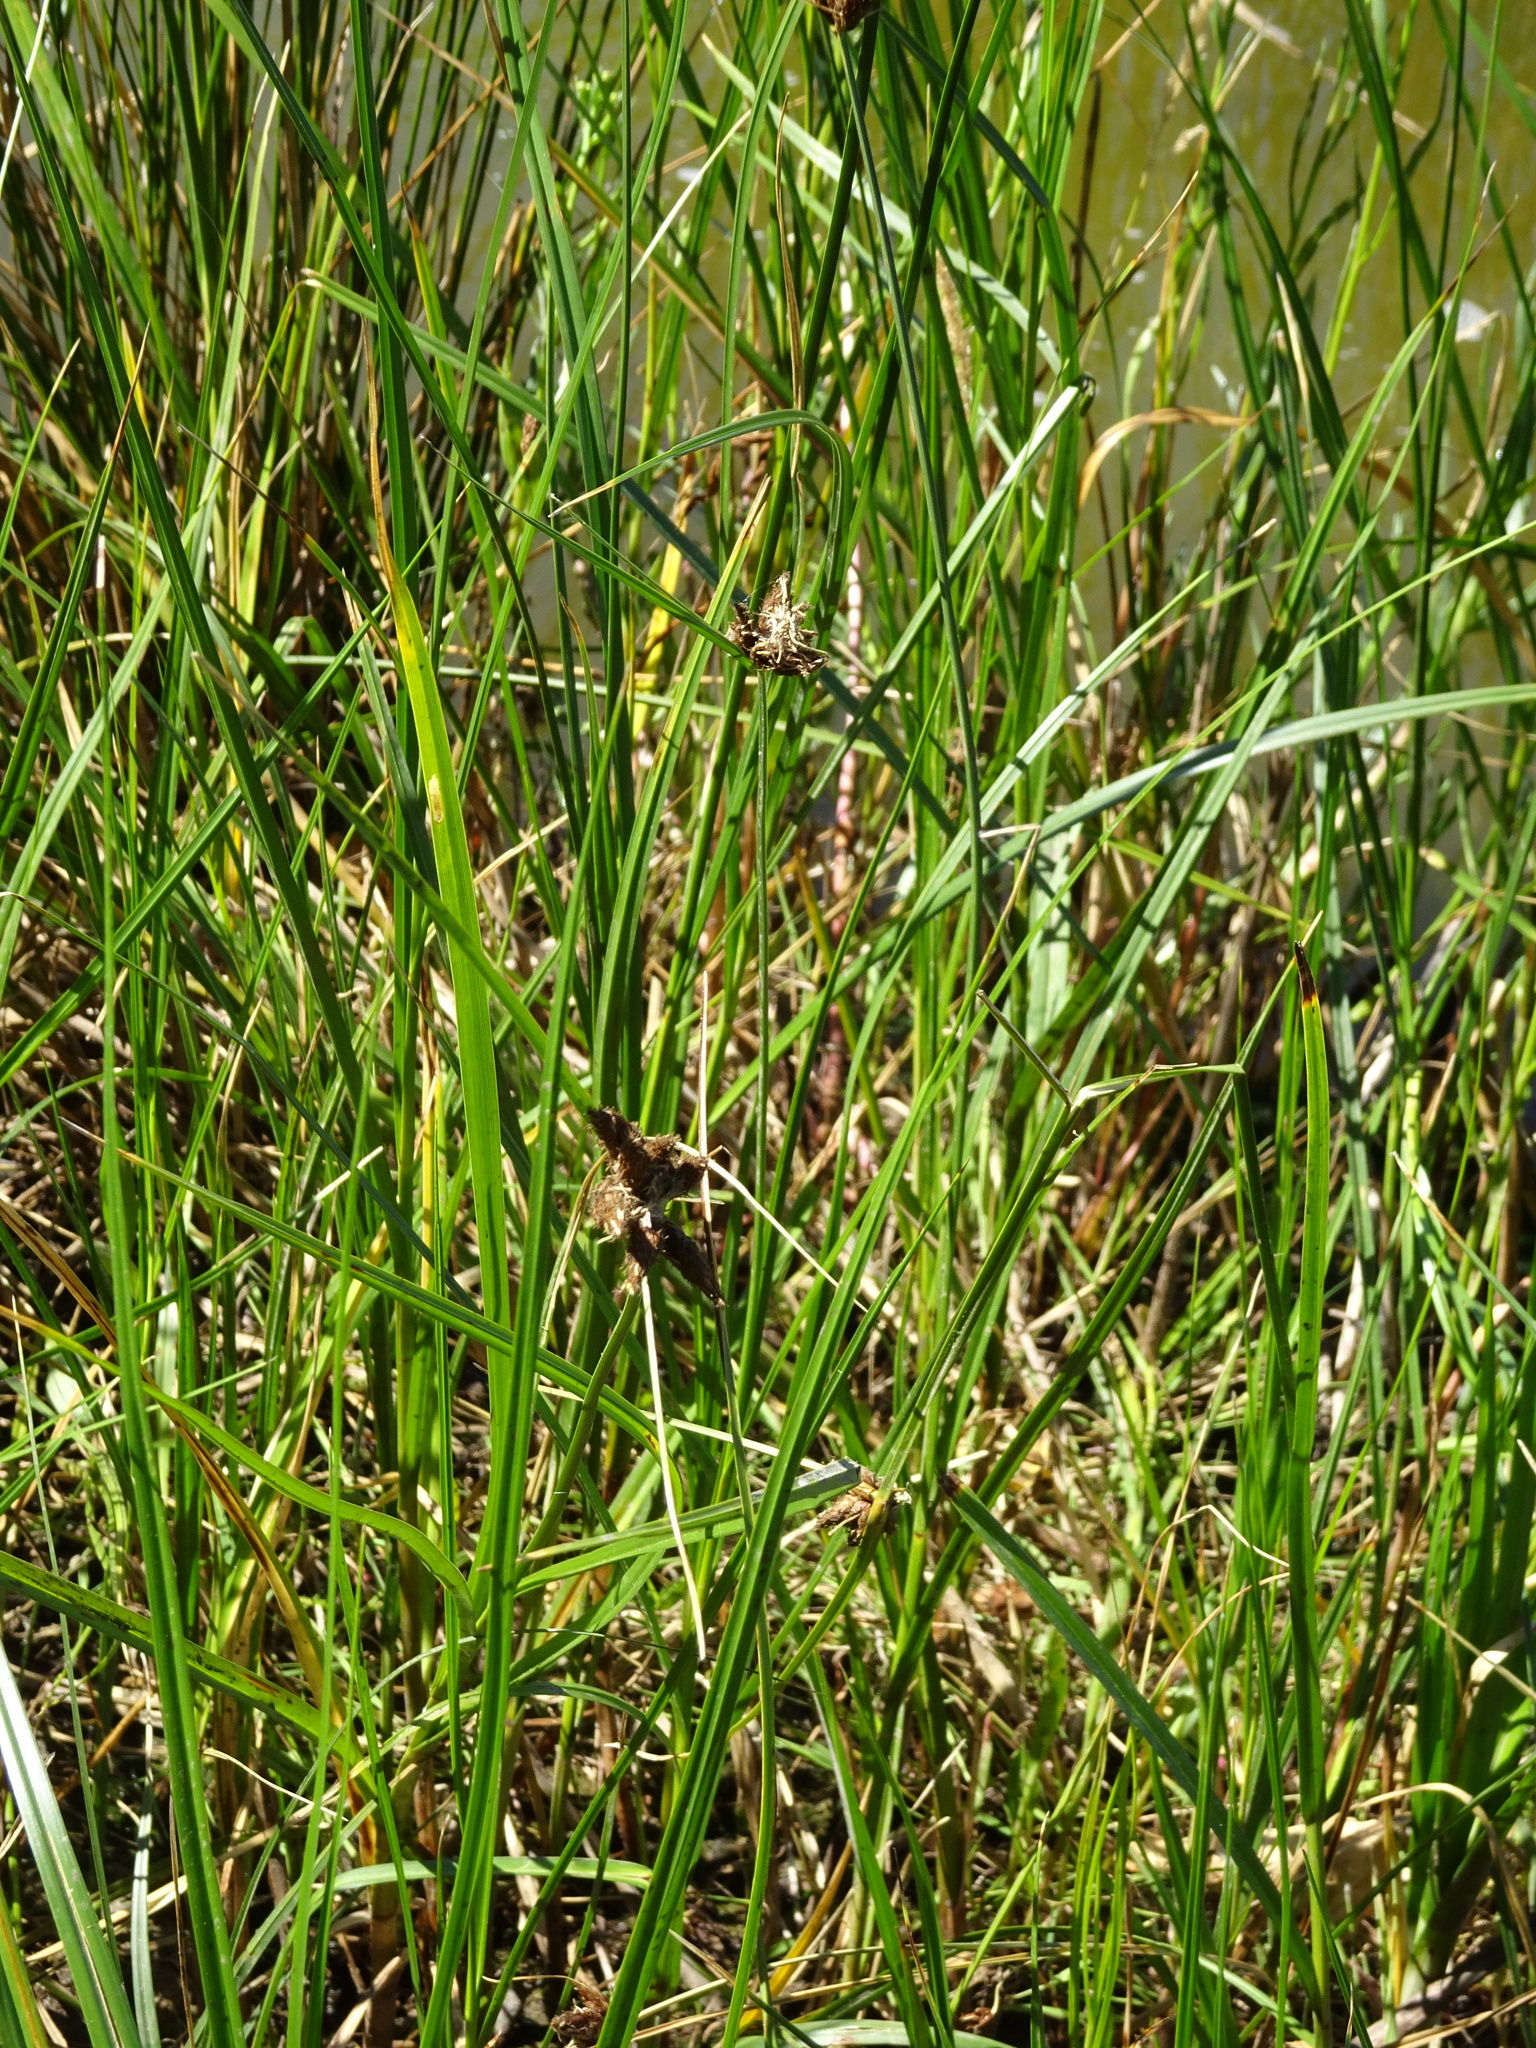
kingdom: Plantae
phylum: Tracheophyta
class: Liliopsida
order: Poales
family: Cyperaceae
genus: Bolboschoenus
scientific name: Bolboschoenus maritimus
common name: Sea club-rush
